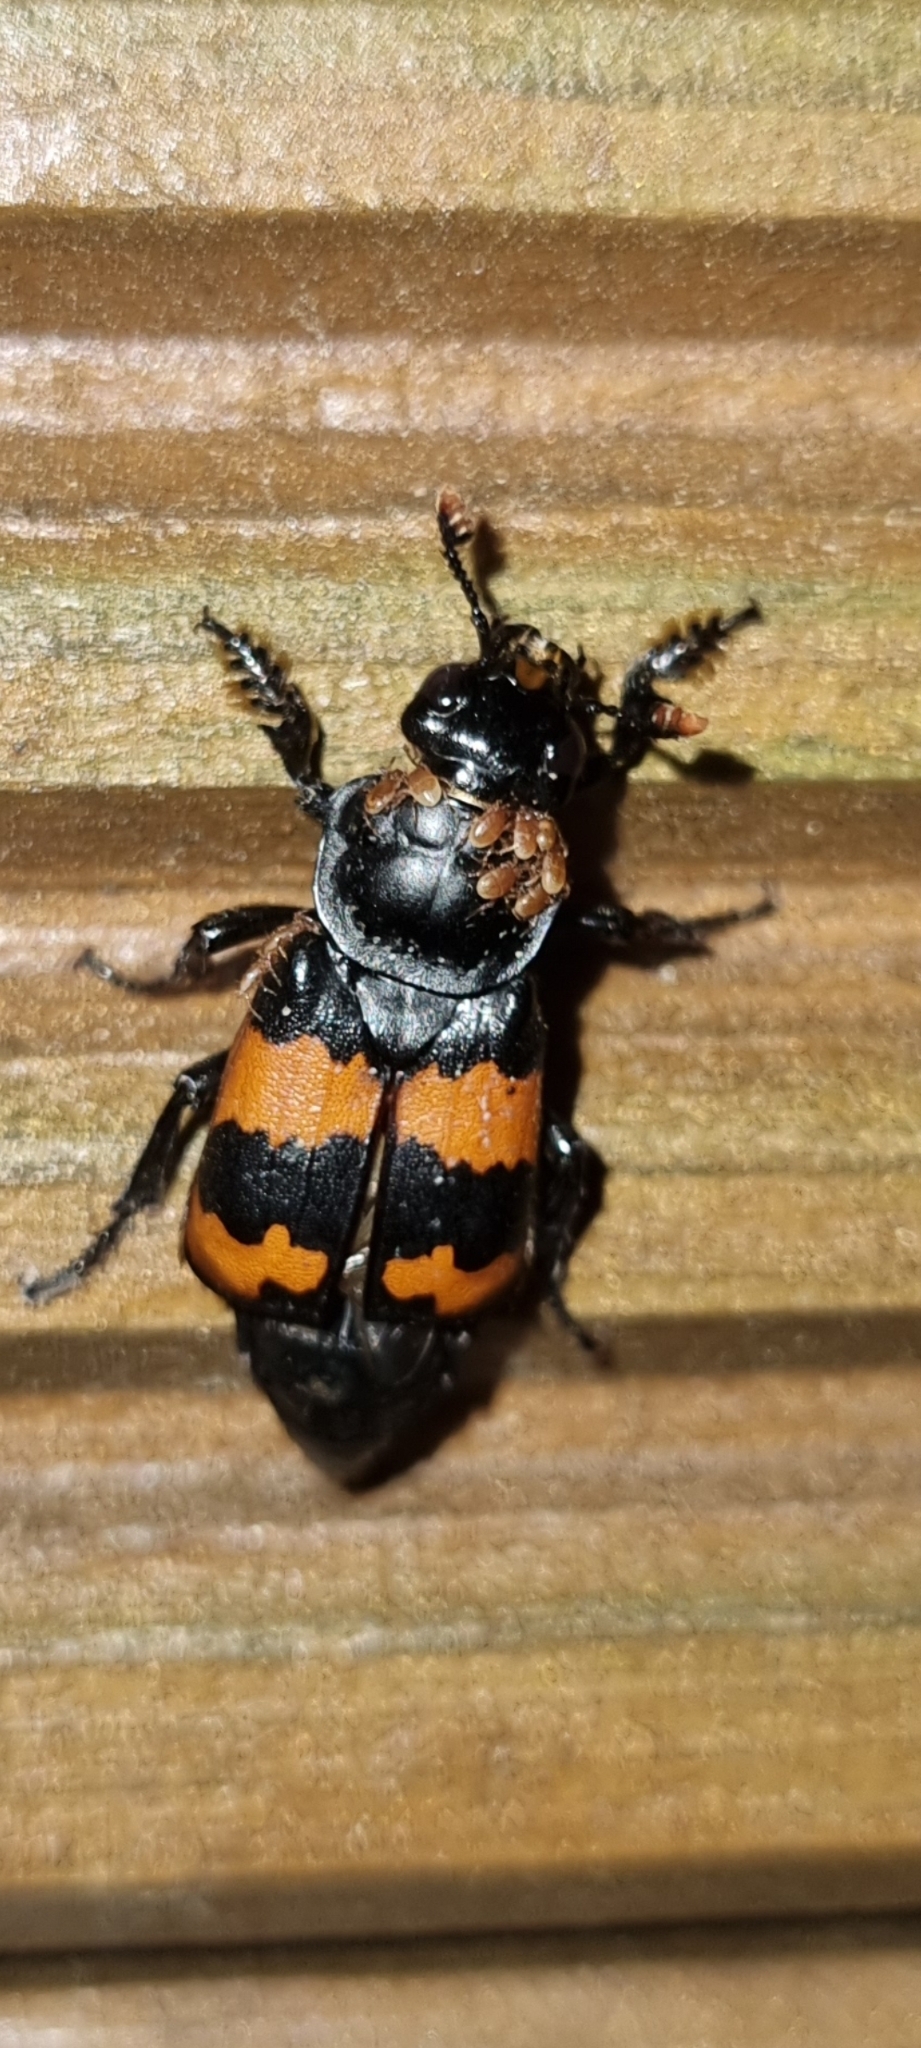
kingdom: Animalia
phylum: Arthropoda
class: Insecta
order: Coleoptera
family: Staphylinidae
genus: Nicrophorus
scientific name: Nicrophorus investigator
